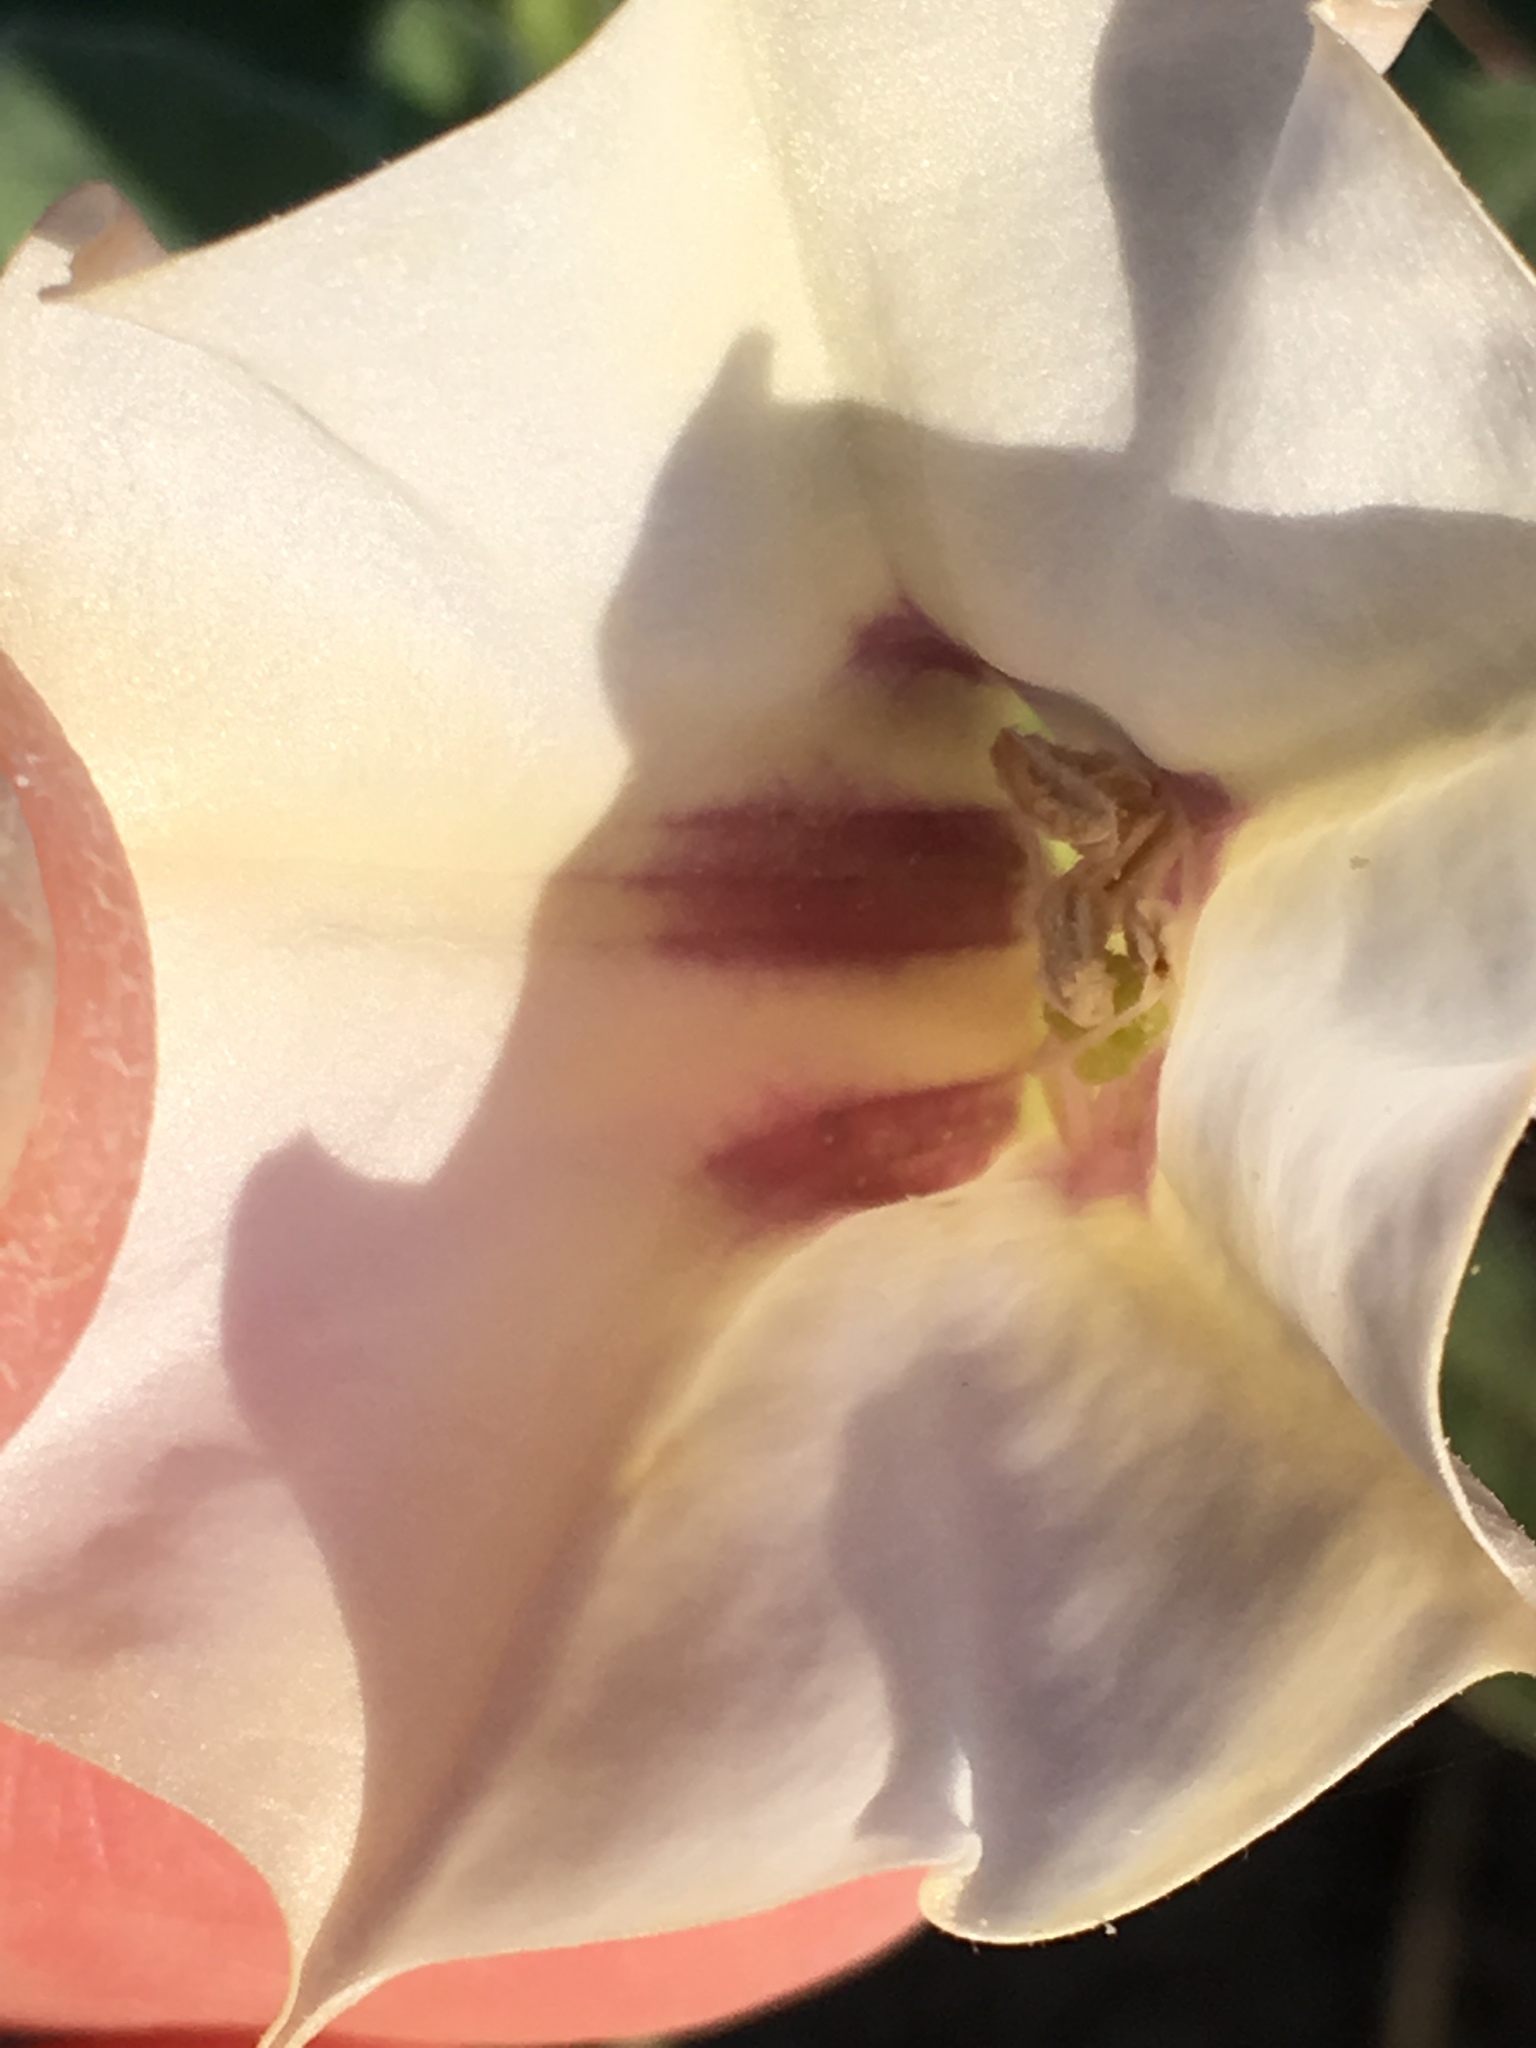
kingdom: Plantae
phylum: Tracheophyta
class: Magnoliopsida
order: Solanales
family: Solanaceae
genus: Datura
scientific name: Datura discolor
